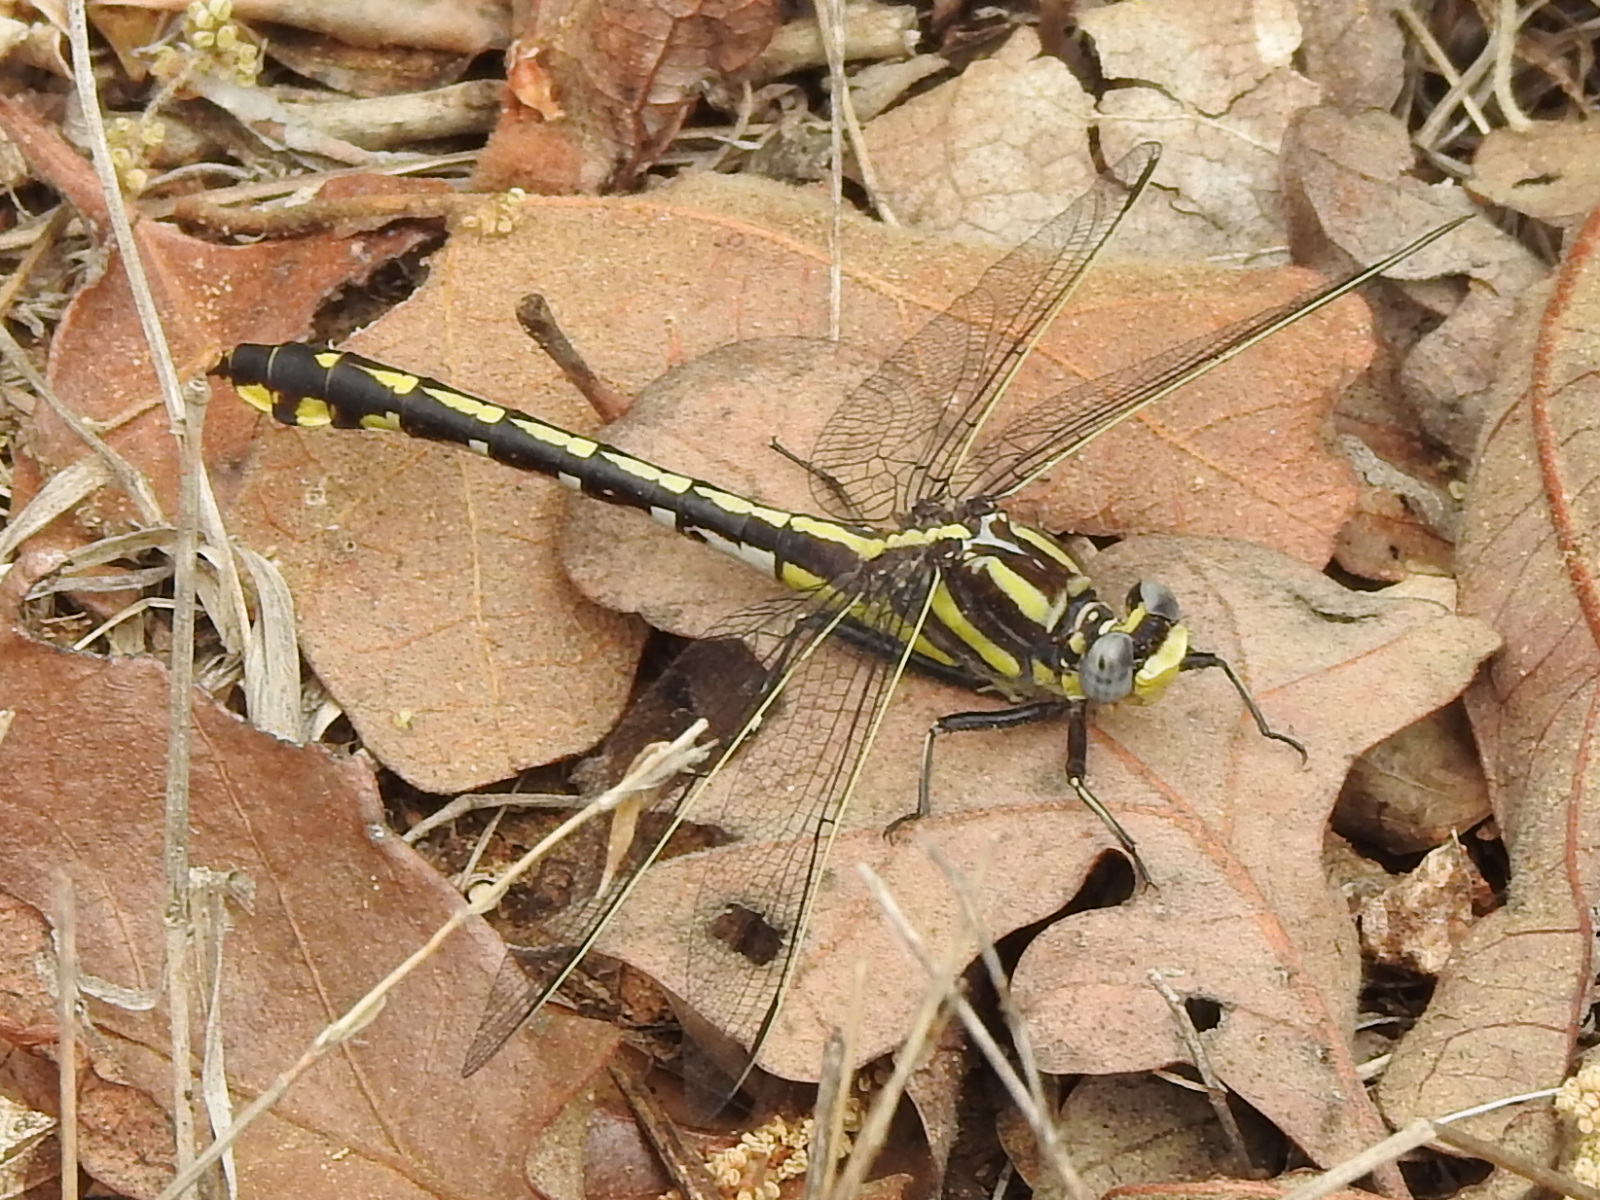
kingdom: Animalia
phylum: Arthropoda
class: Insecta
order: Odonata
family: Gomphidae
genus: Gomphurus
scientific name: Gomphurus externus
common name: Plains clubtail
